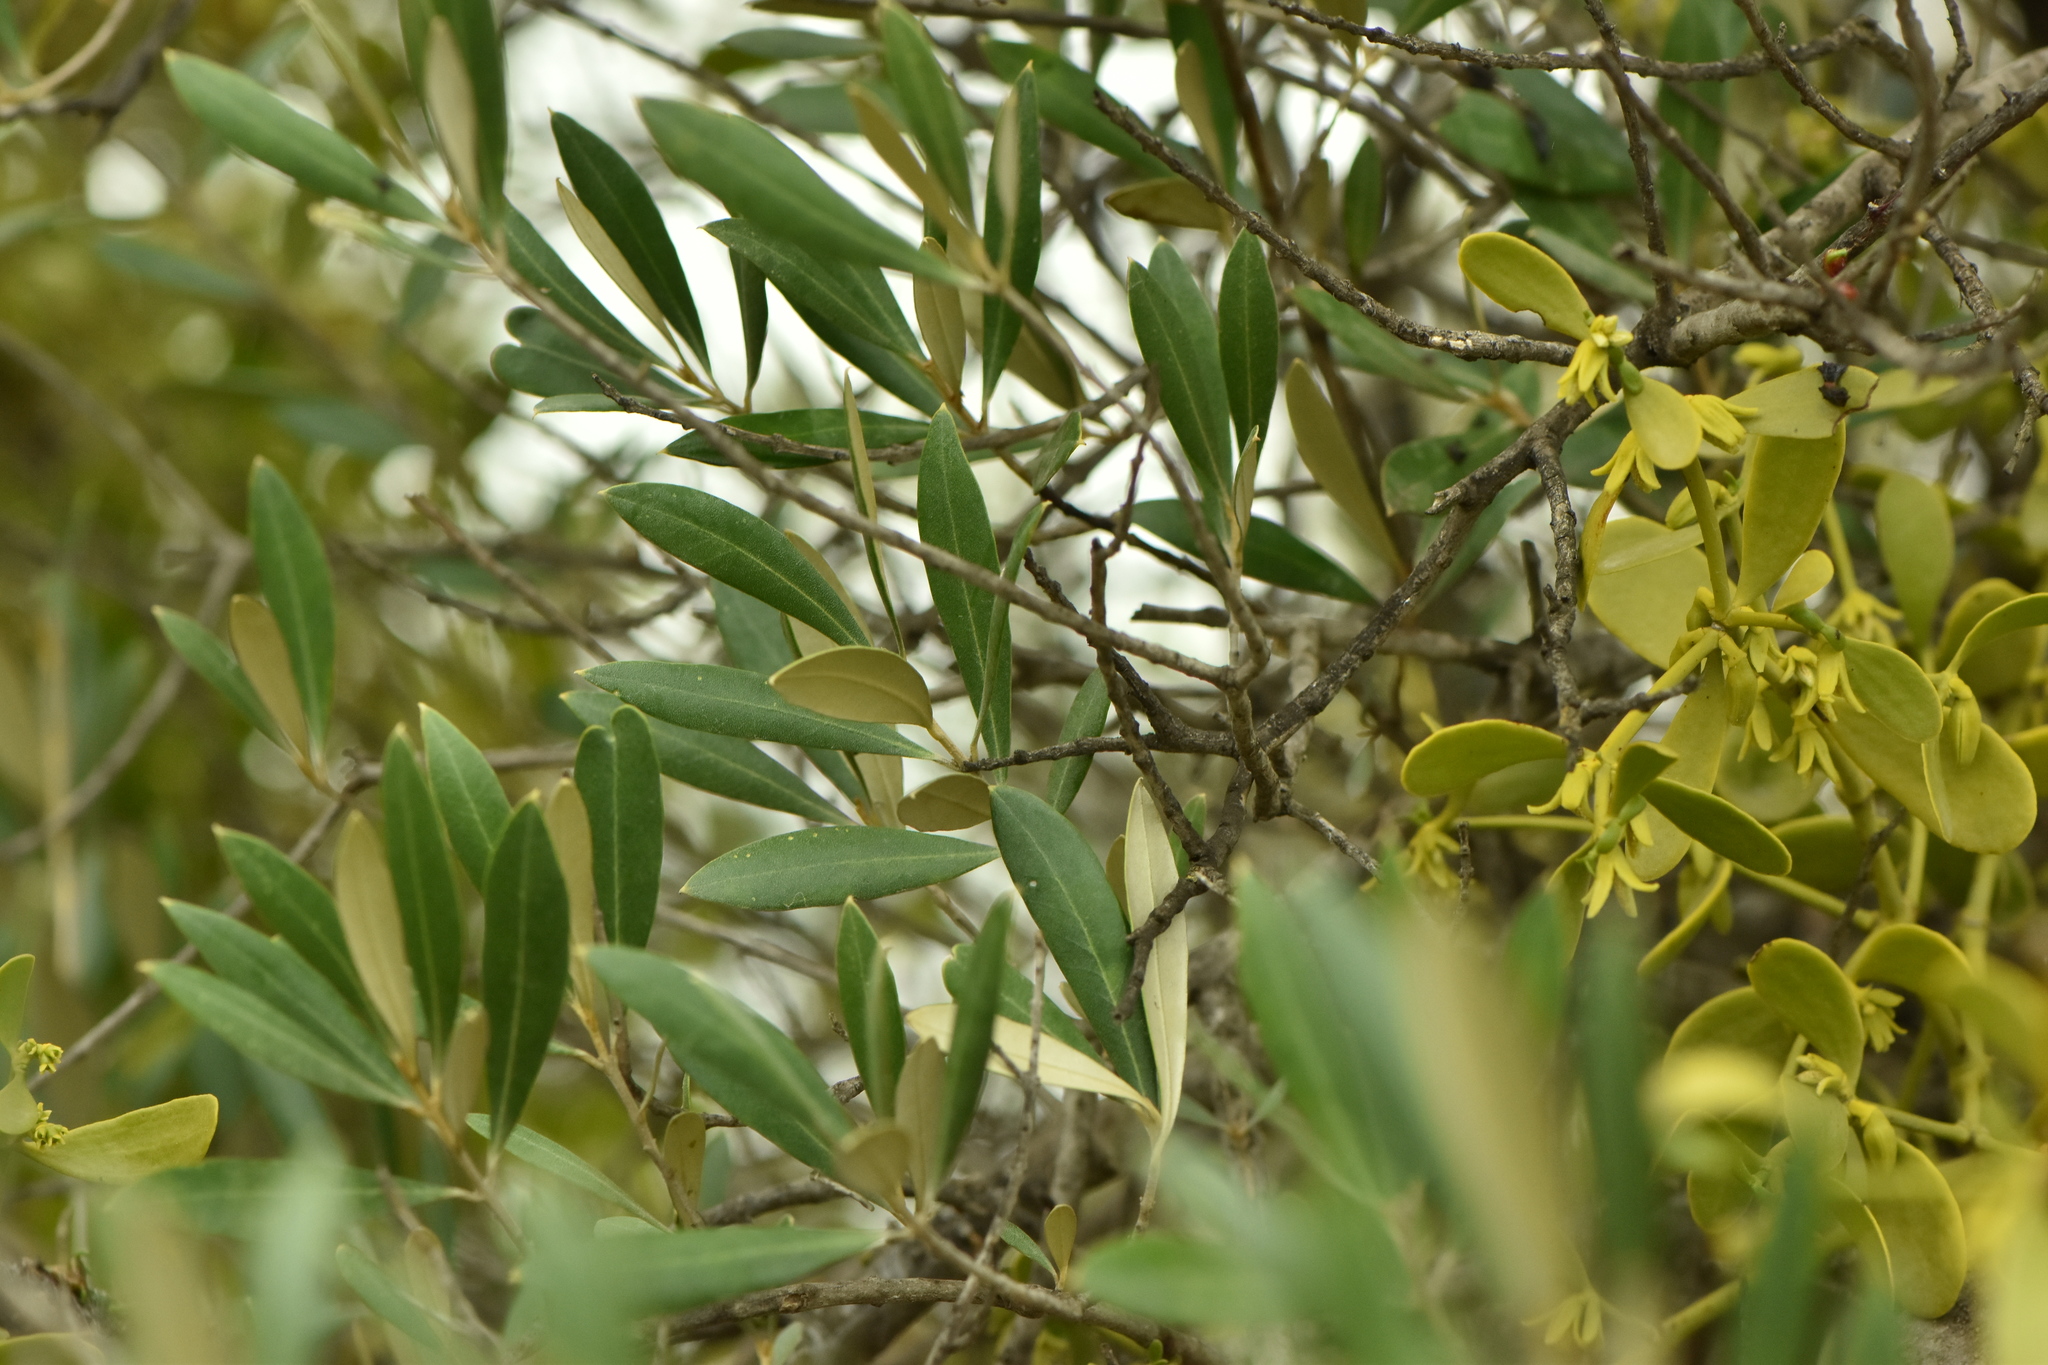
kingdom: Plantae
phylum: Tracheophyta
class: Magnoliopsida
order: Santalales
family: Viscaceae
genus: Viscum
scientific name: Viscum cruciatum
